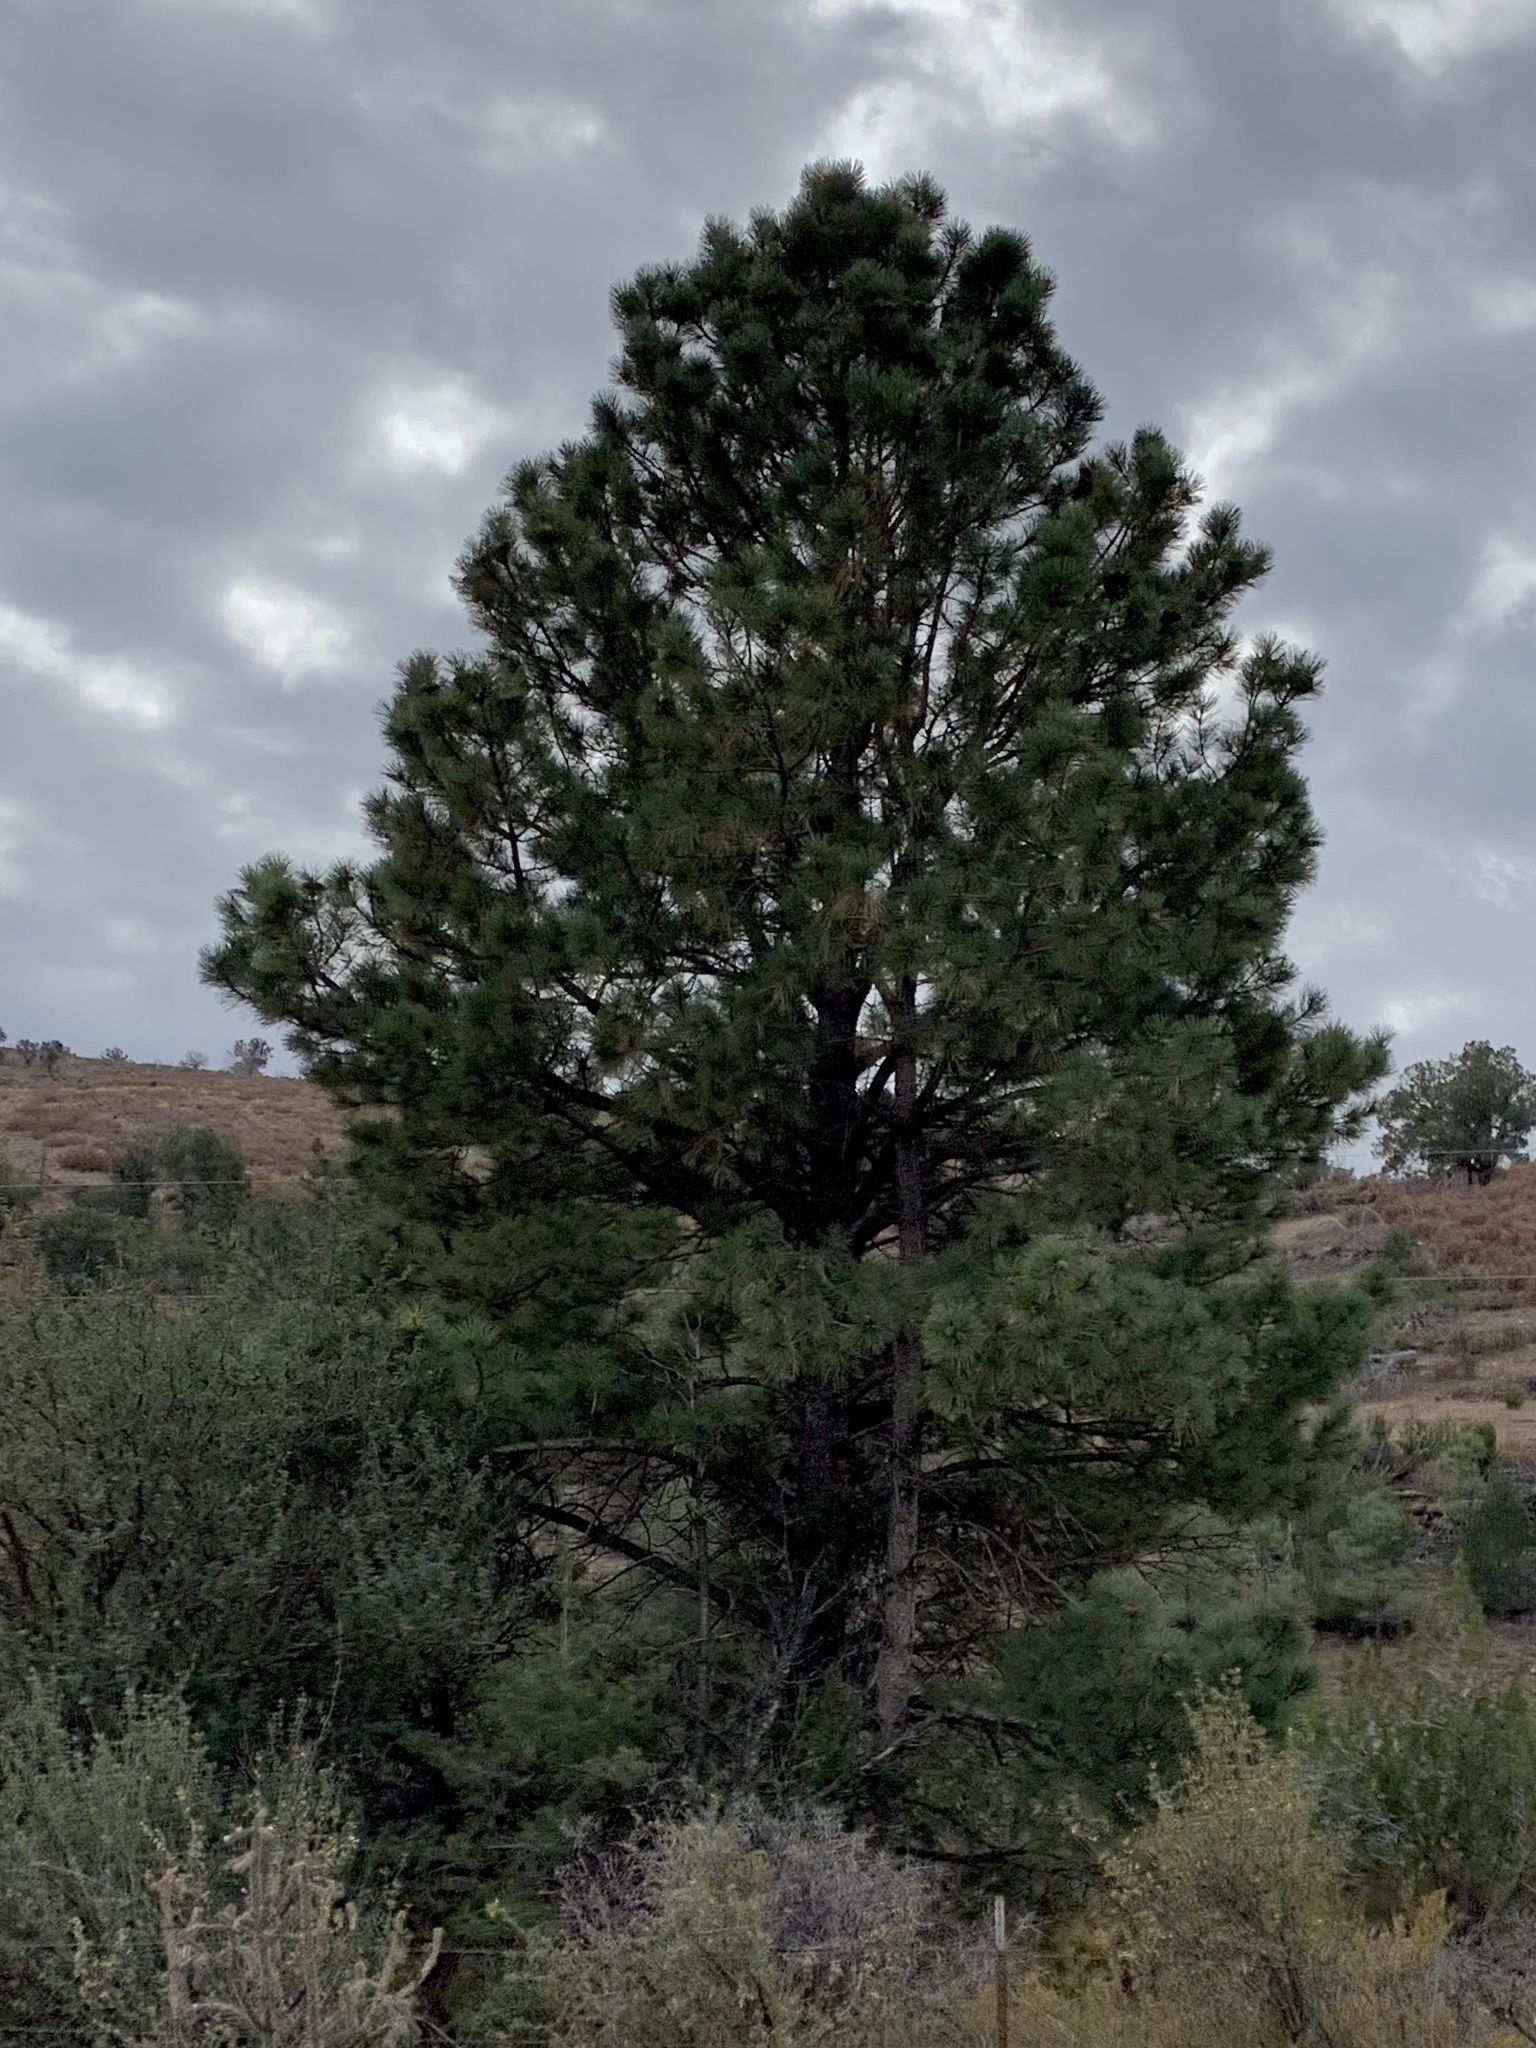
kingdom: Plantae
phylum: Tracheophyta
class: Pinopsida
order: Pinales
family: Pinaceae
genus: Pinus
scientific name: Pinus ponderosa
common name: Western yellow-pine
